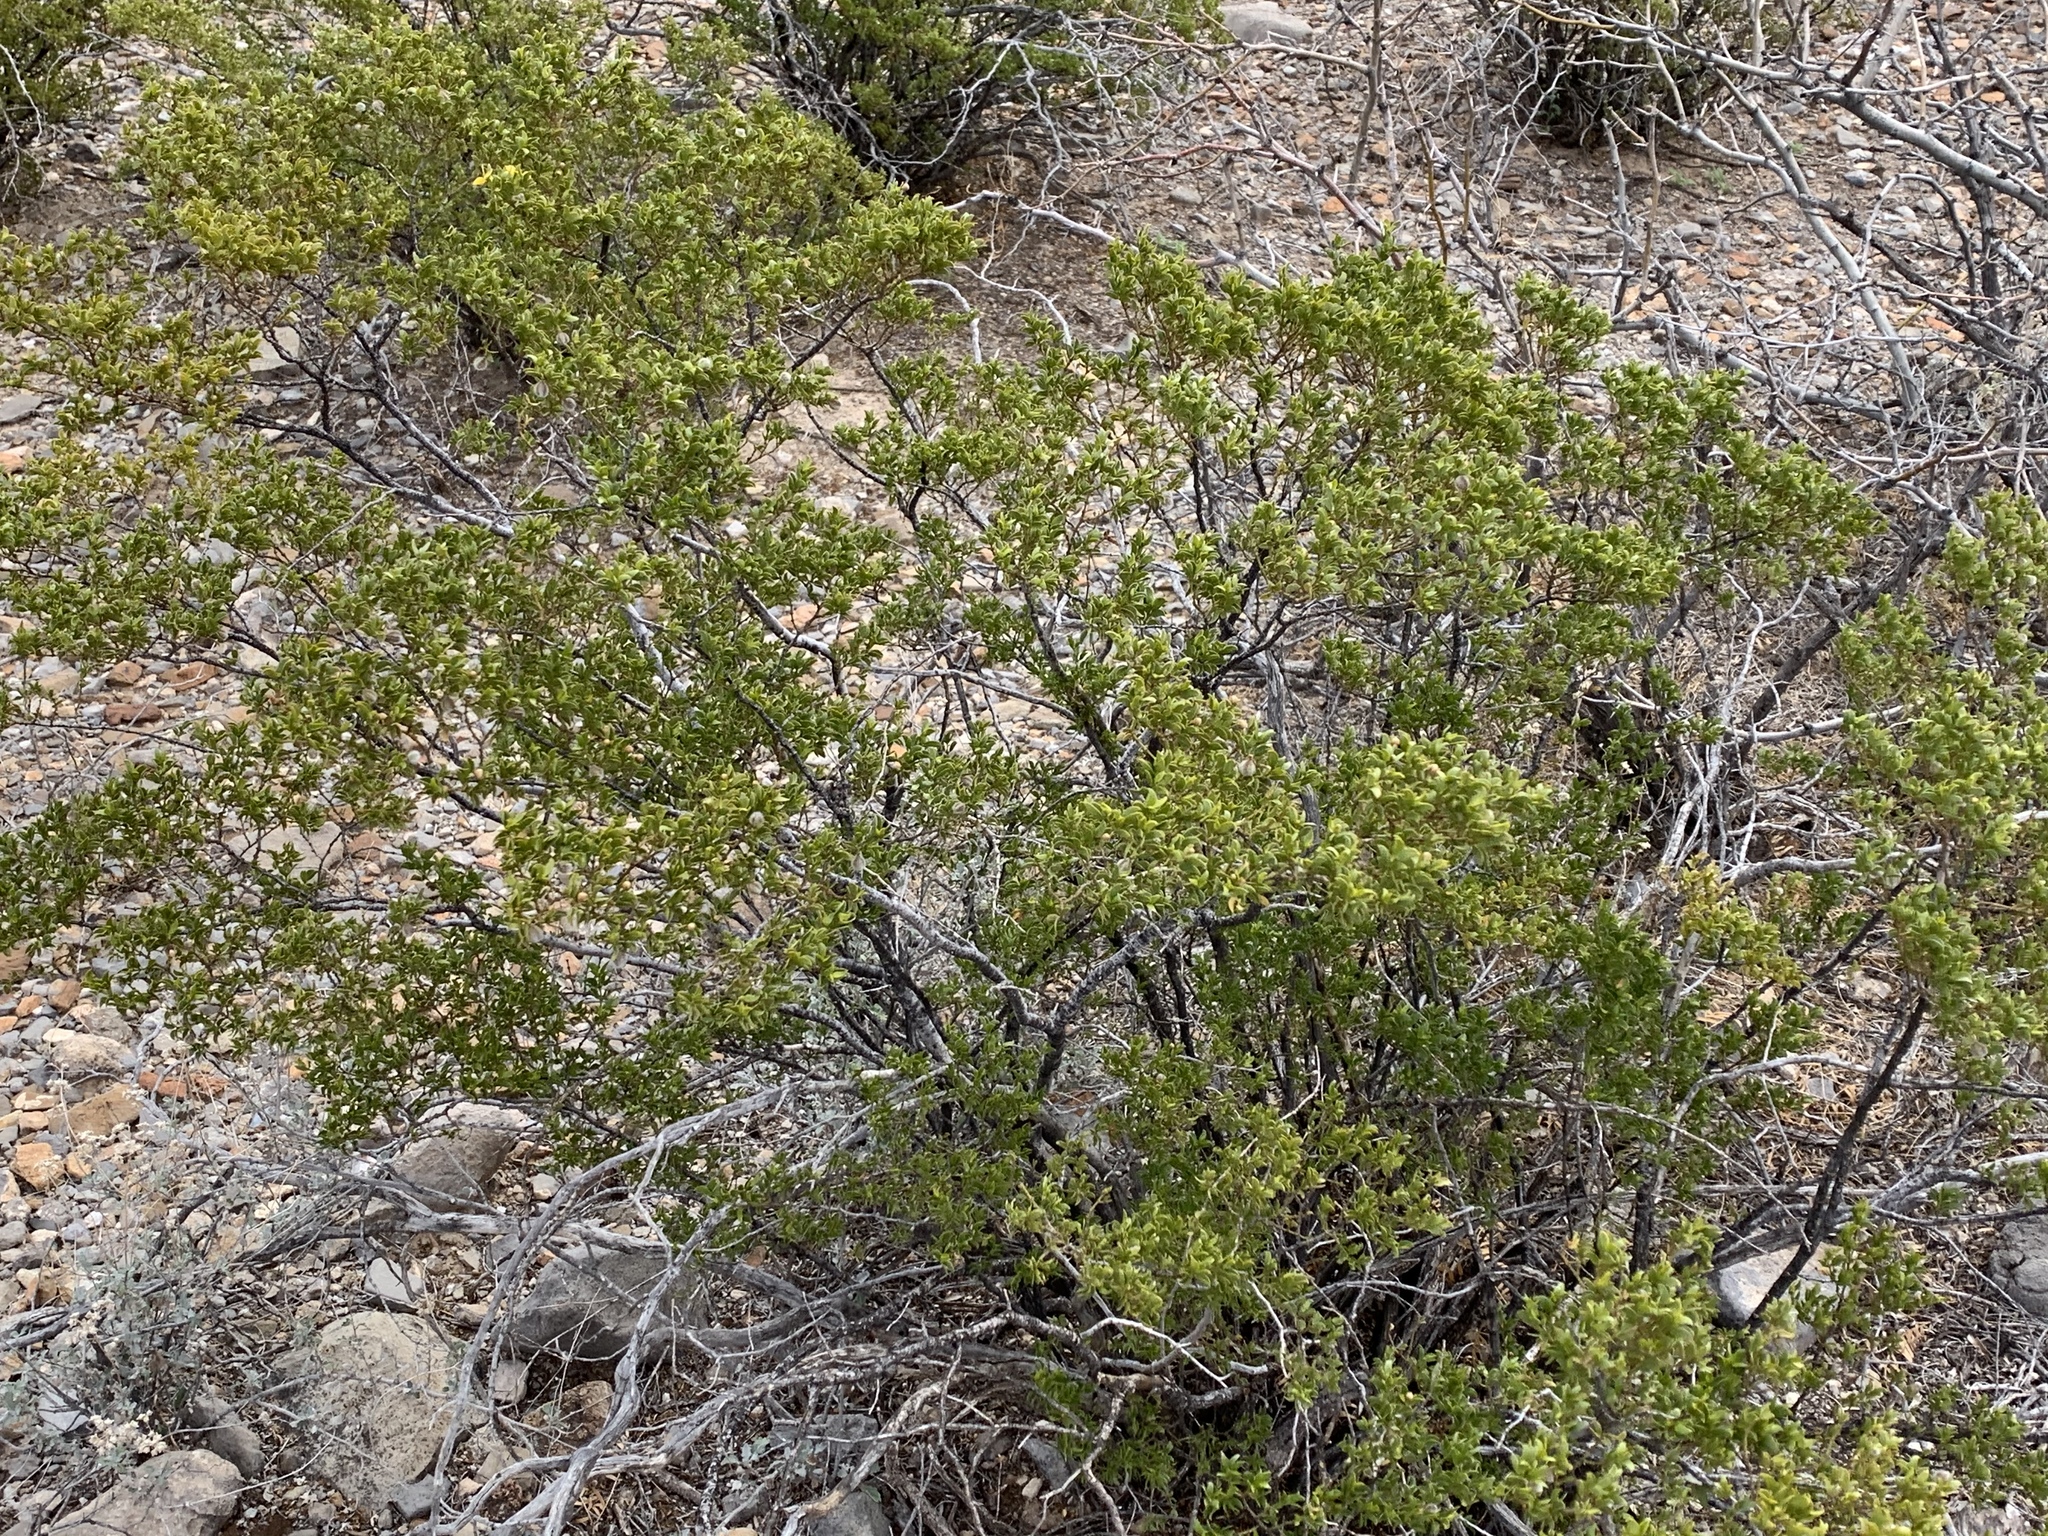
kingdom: Plantae
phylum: Tracheophyta
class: Magnoliopsida
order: Zygophyllales
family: Zygophyllaceae
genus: Larrea
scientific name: Larrea tridentata
